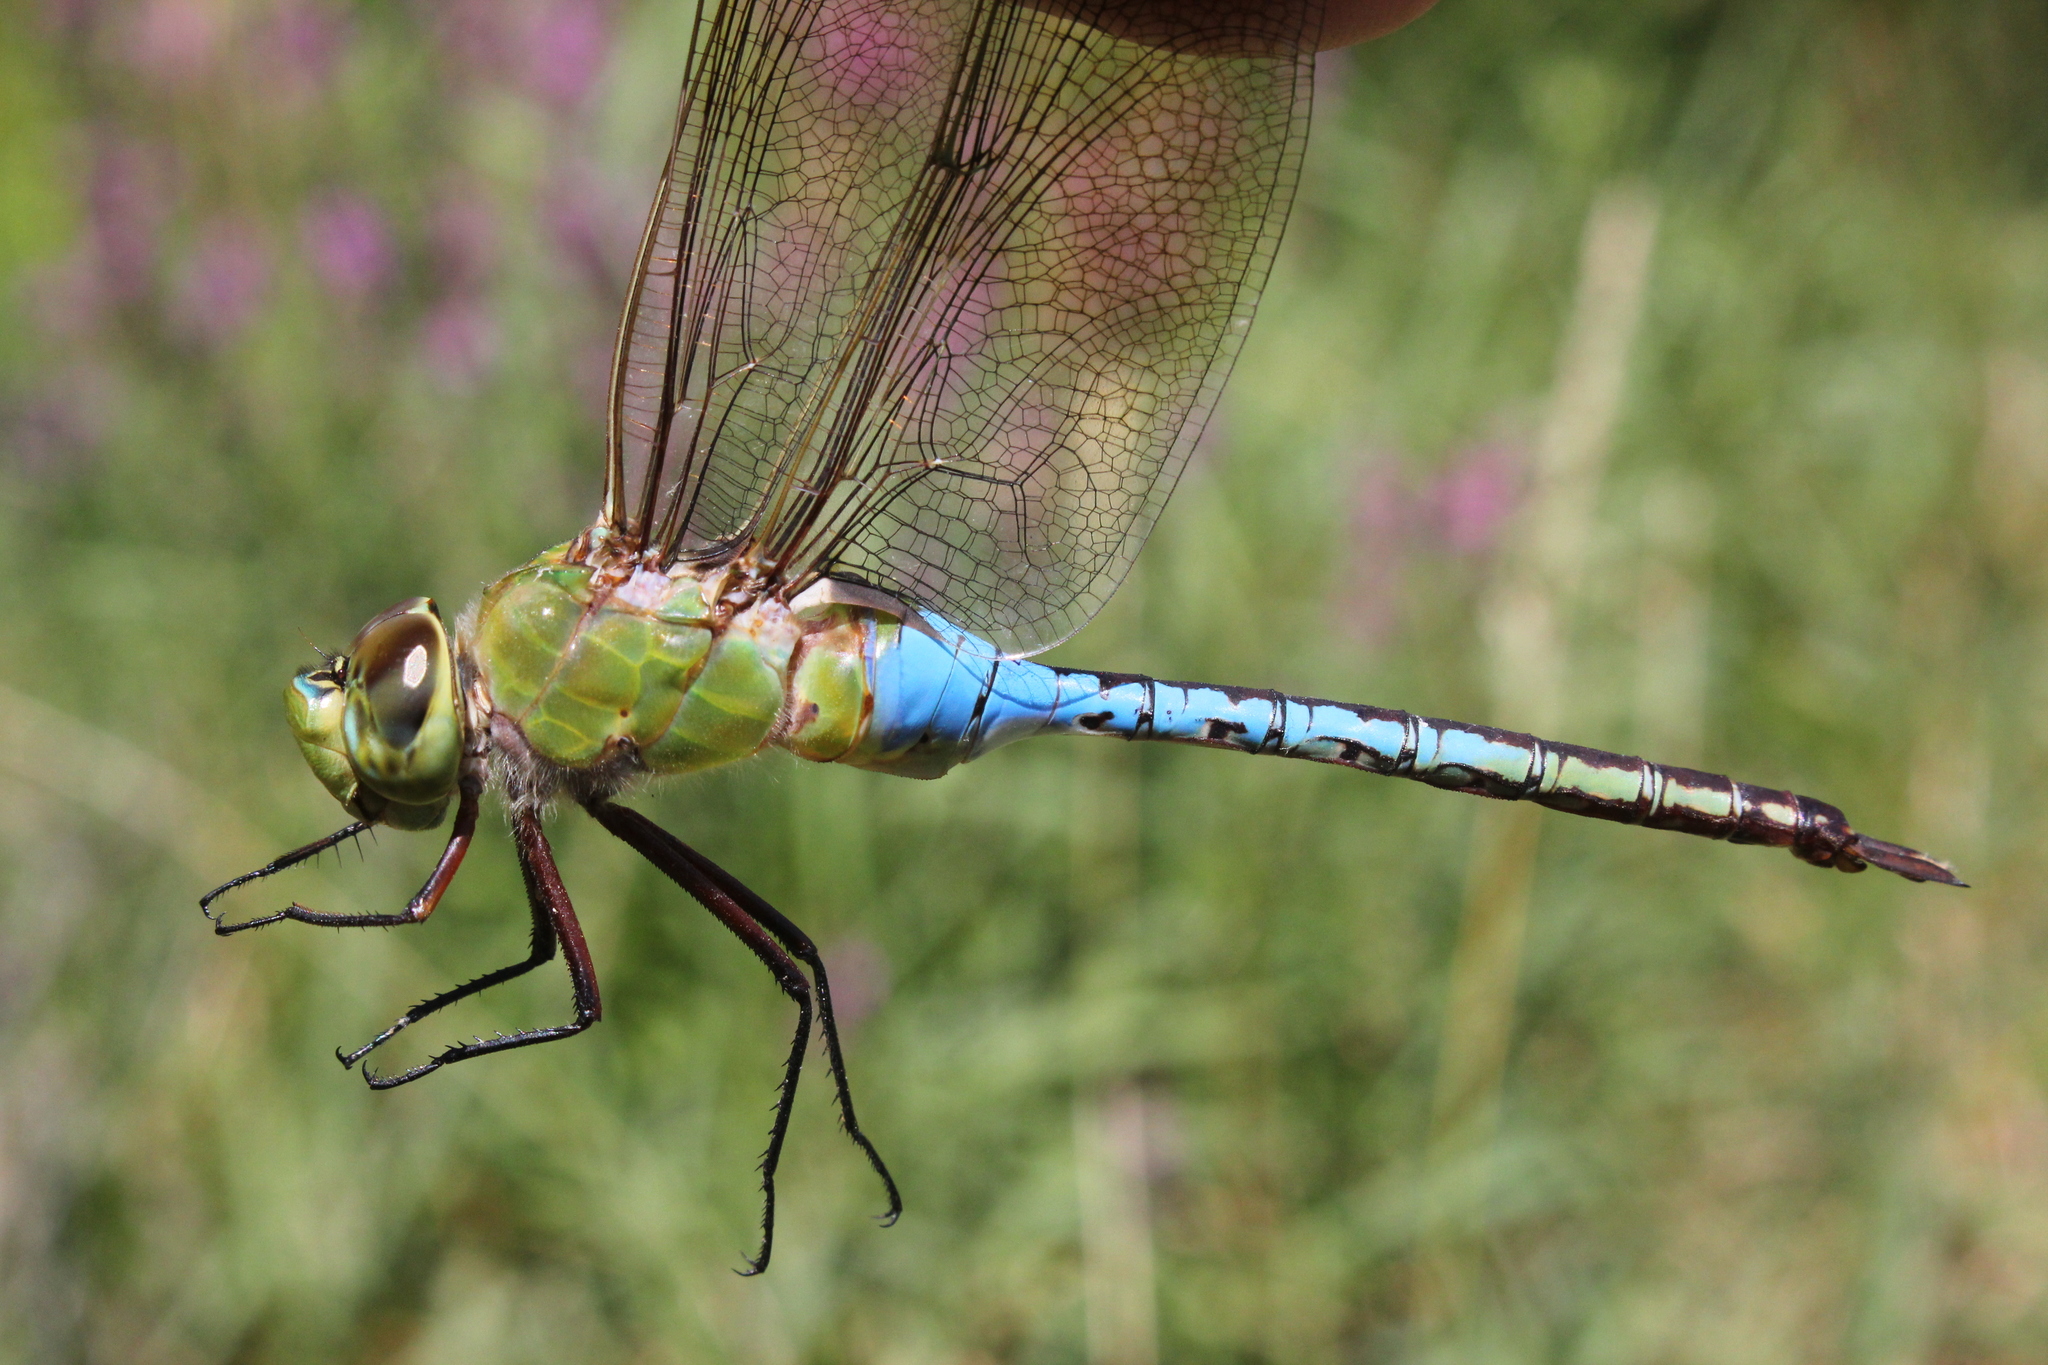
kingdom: Animalia
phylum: Arthropoda
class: Insecta
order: Odonata
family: Aeshnidae
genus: Anax
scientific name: Anax junius
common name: Common green darner
